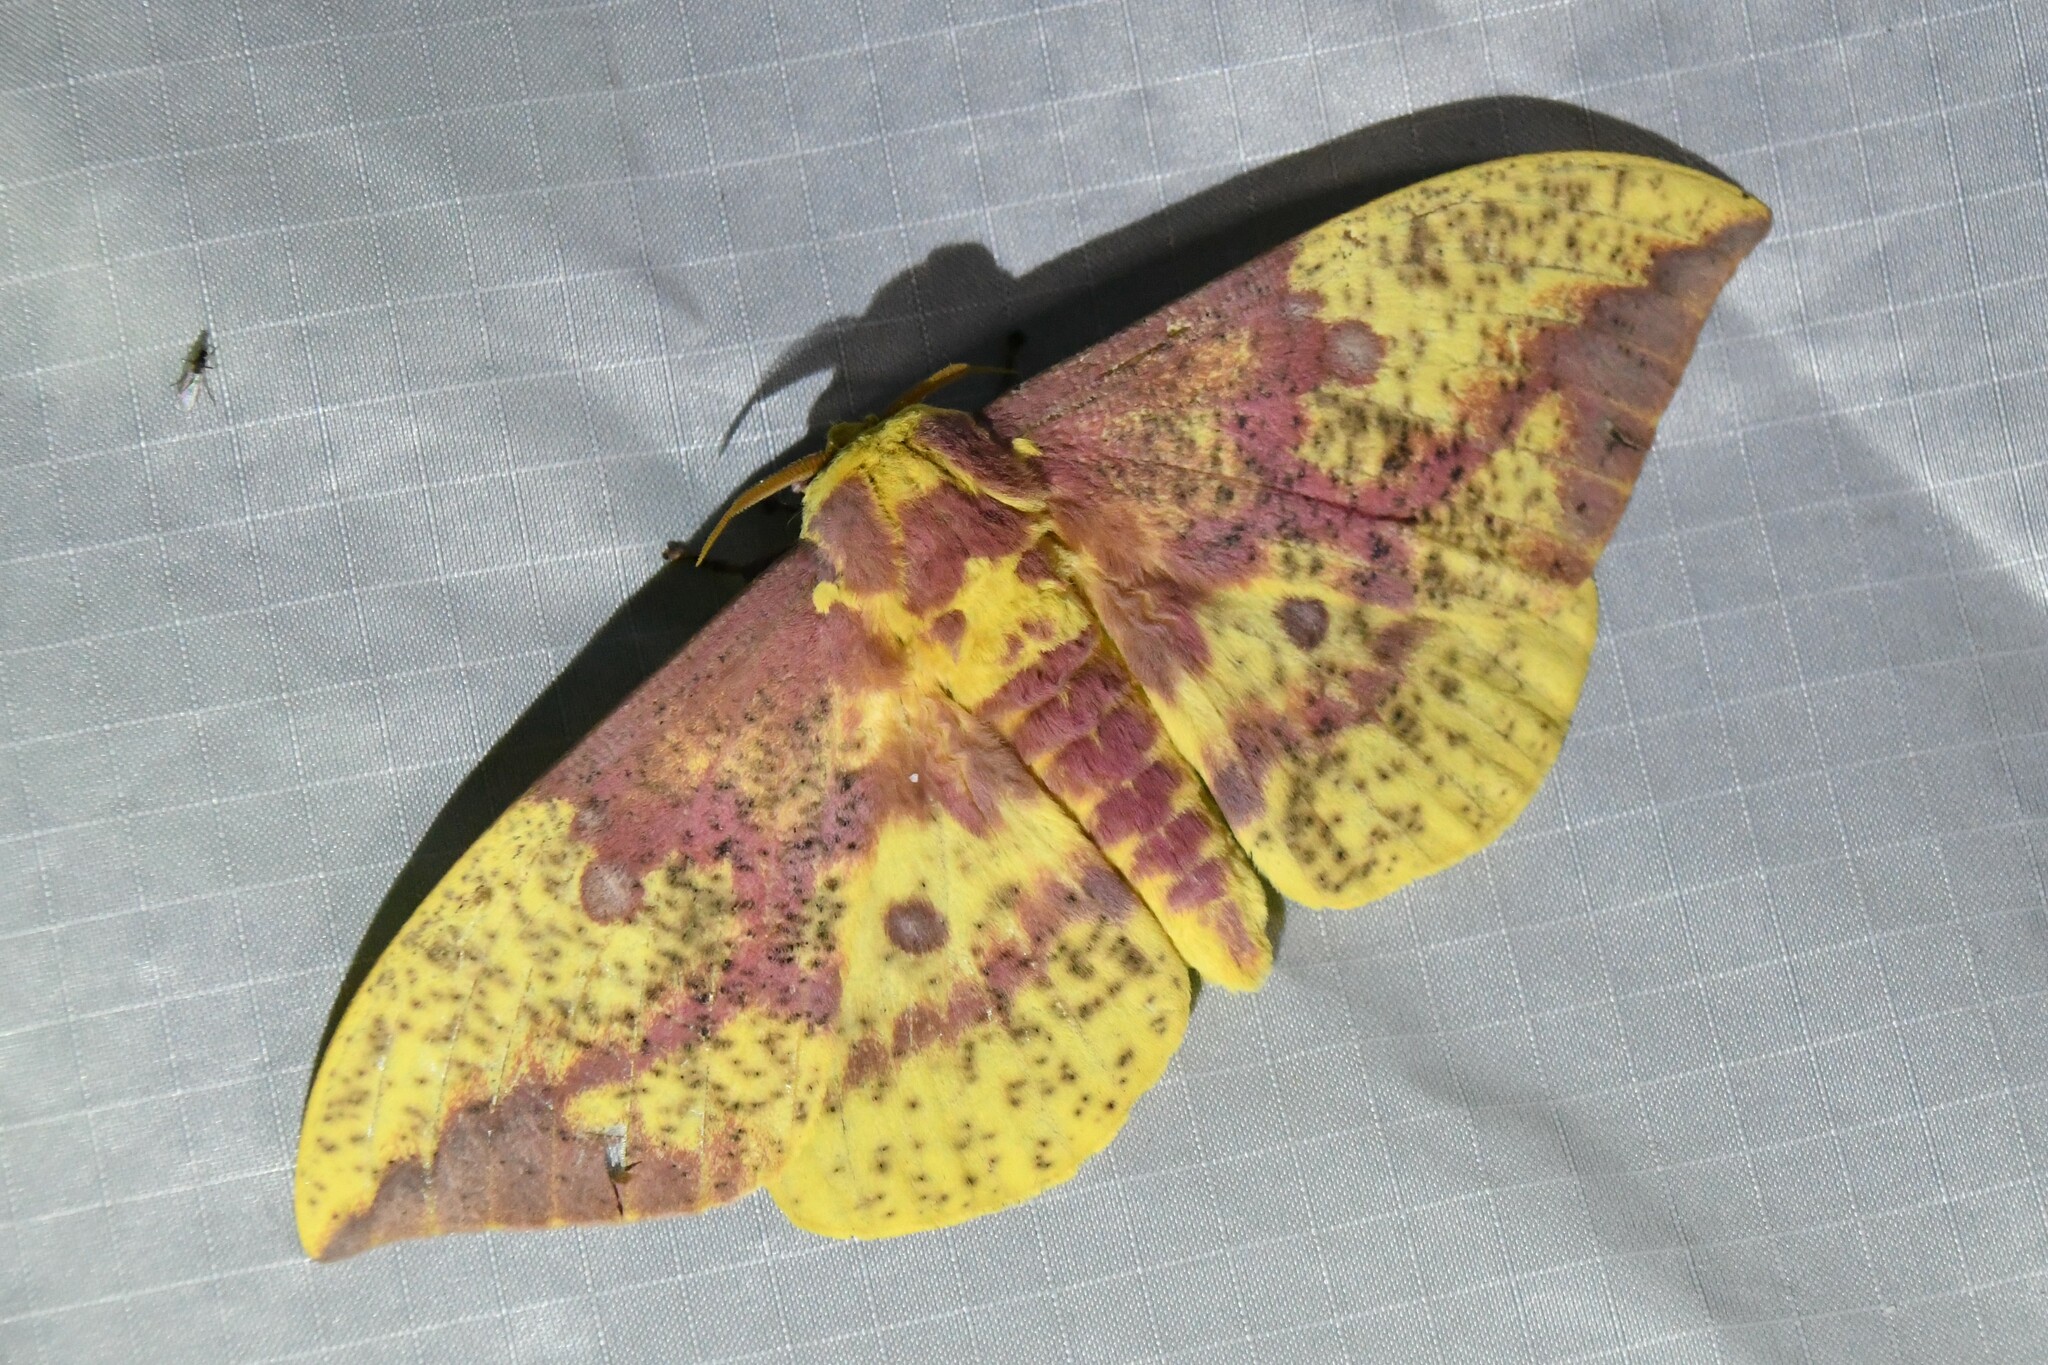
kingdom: Animalia
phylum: Arthropoda
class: Insecta
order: Lepidoptera
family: Saturniidae
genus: Eacles
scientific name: Eacles
